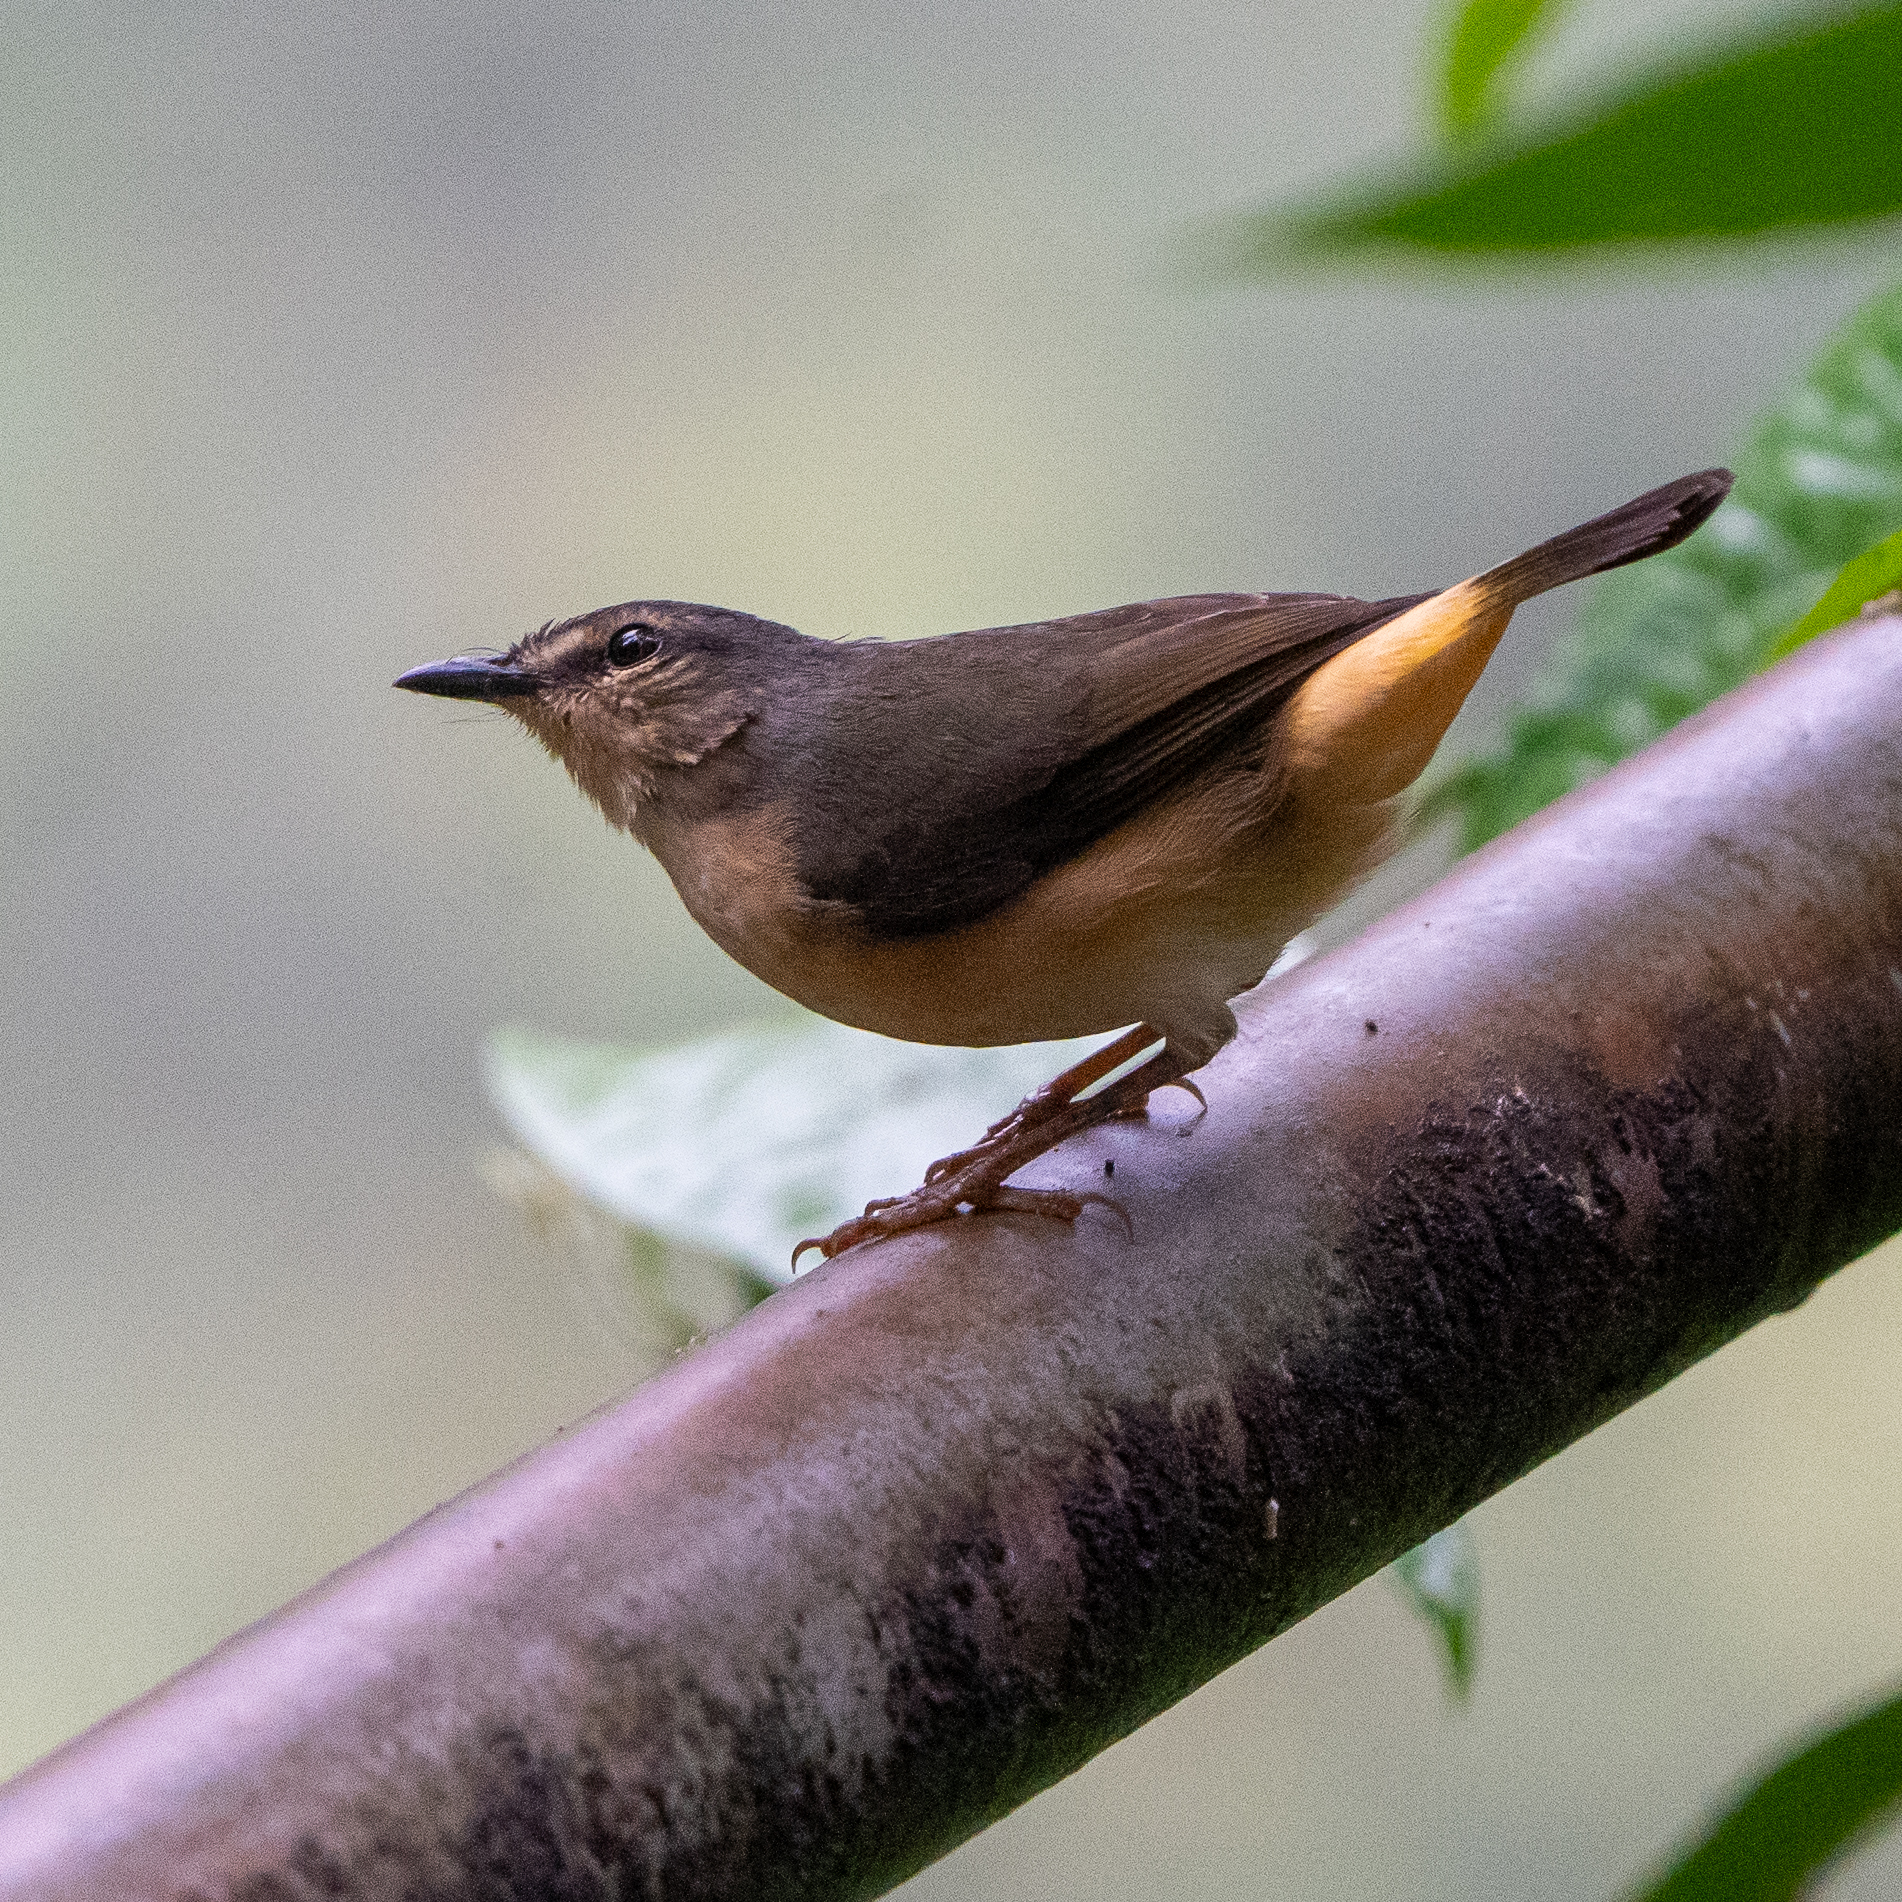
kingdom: Animalia
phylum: Chordata
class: Aves
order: Passeriformes
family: Parulidae
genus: Myiothlypis
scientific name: Myiothlypis fulvicauda
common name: Buff-rumped warbler
